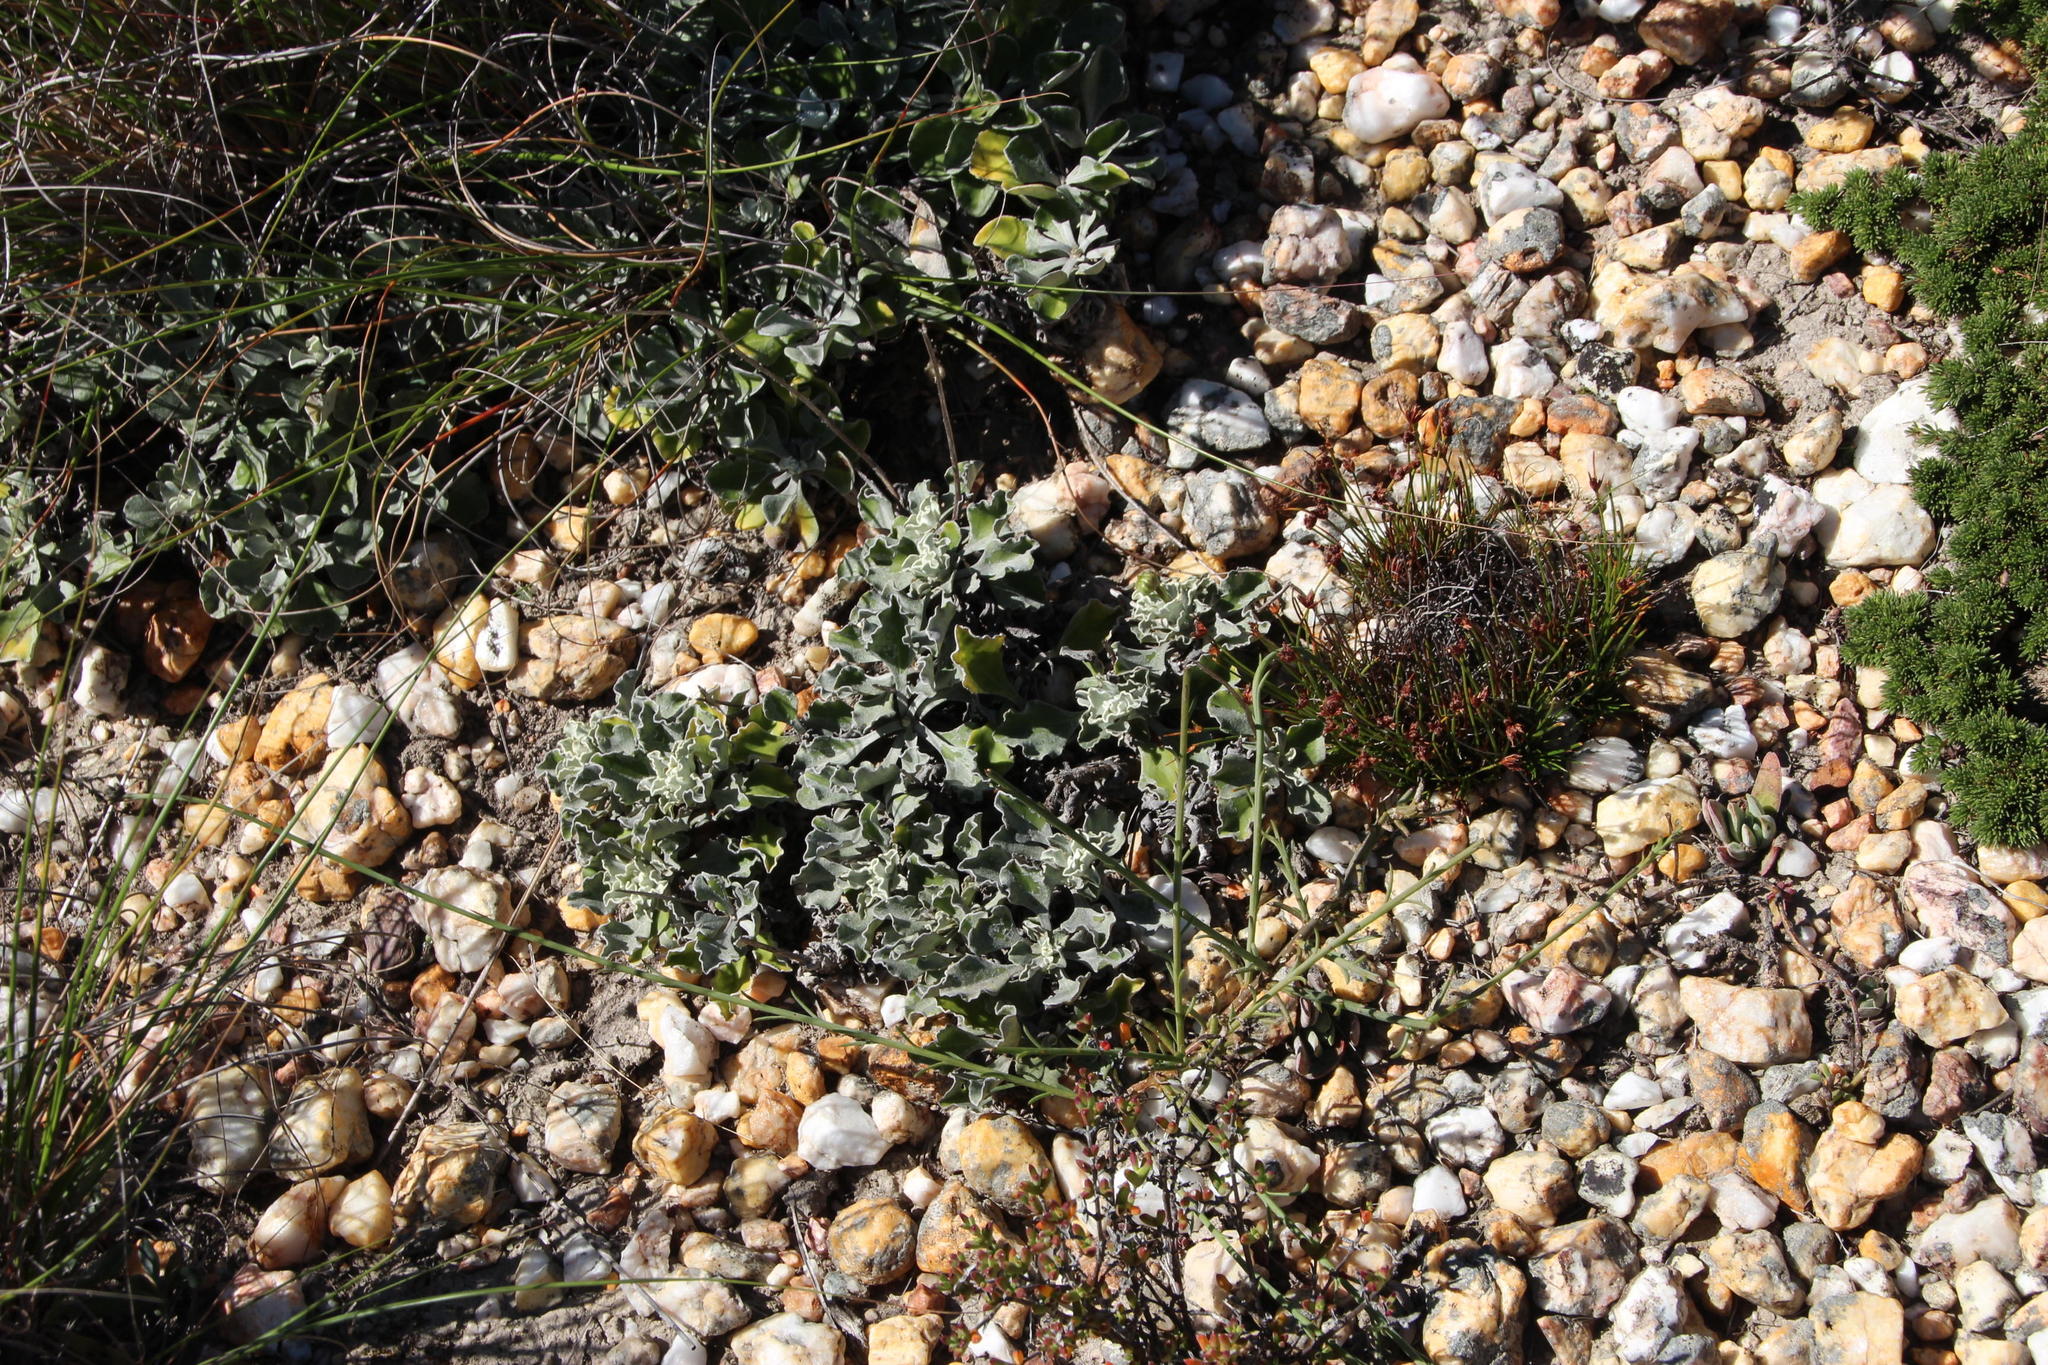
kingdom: Plantae
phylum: Tracheophyta
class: Magnoliopsida
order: Asterales
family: Asteraceae
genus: Osteospermum
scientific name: Osteospermum tomentosum
